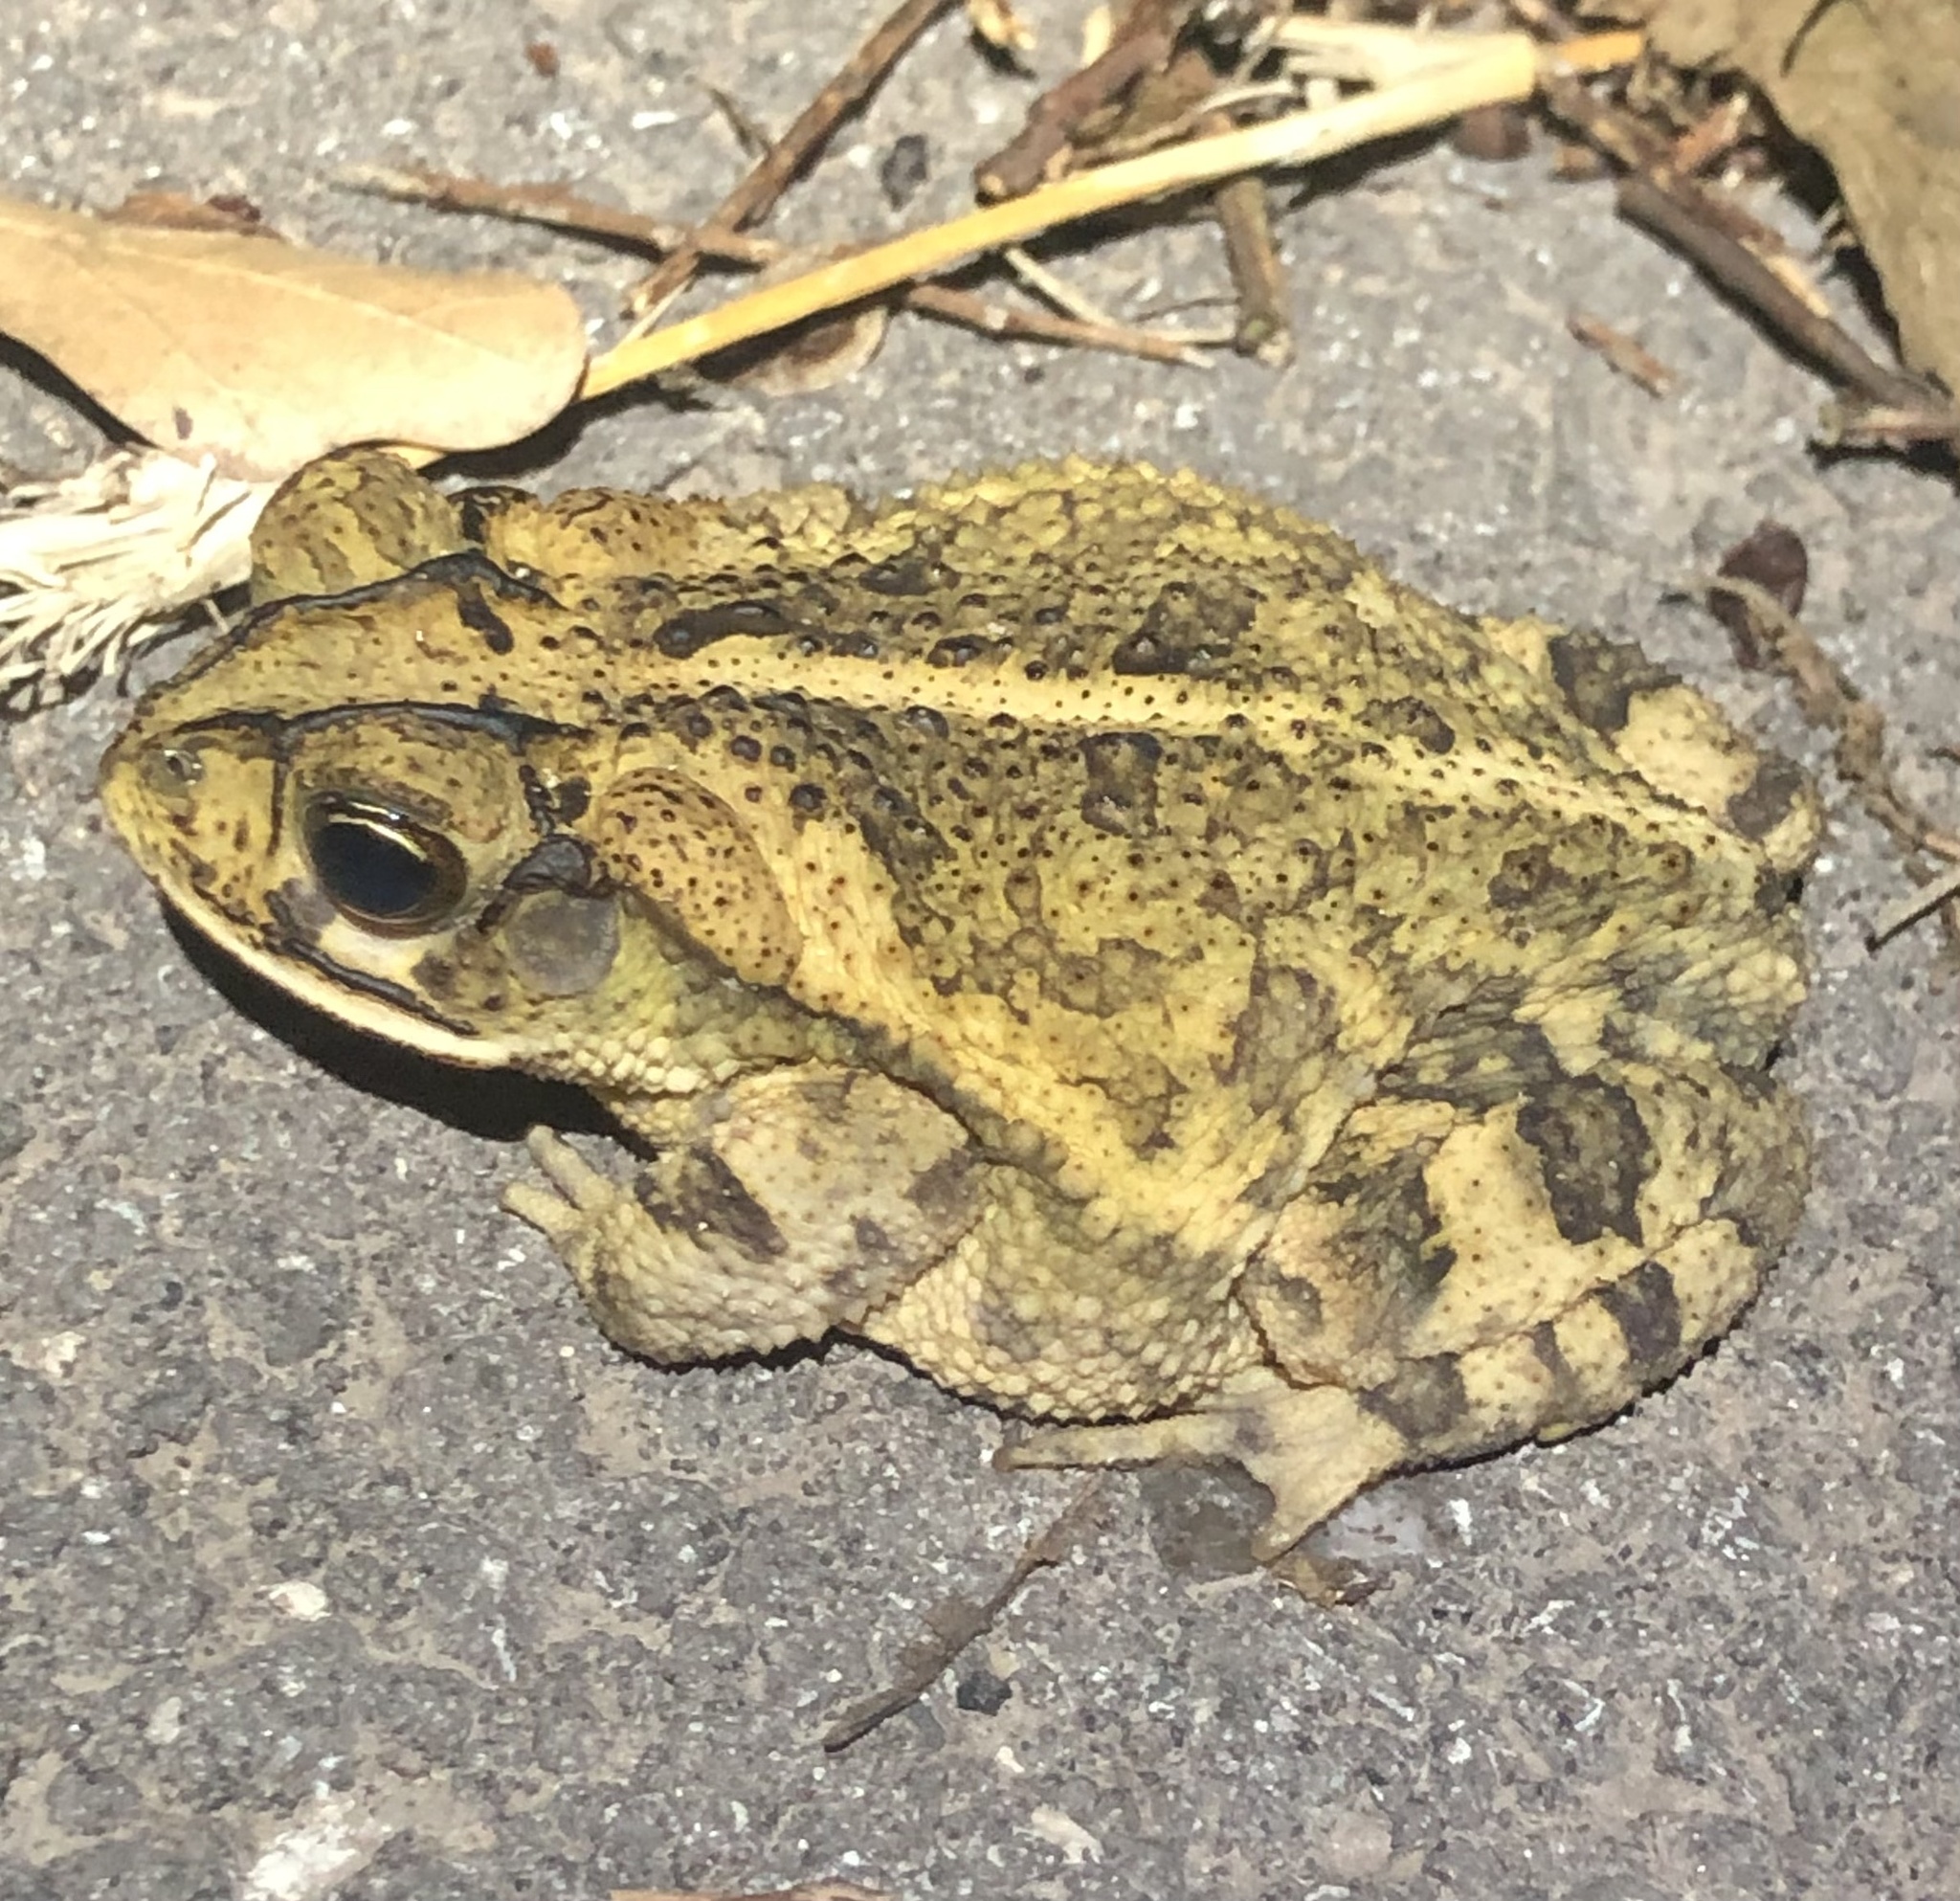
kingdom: Animalia
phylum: Chordata
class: Amphibia
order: Anura
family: Bufonidae
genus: Incilius
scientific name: Incilius nebulifer
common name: Gulf coast toad
